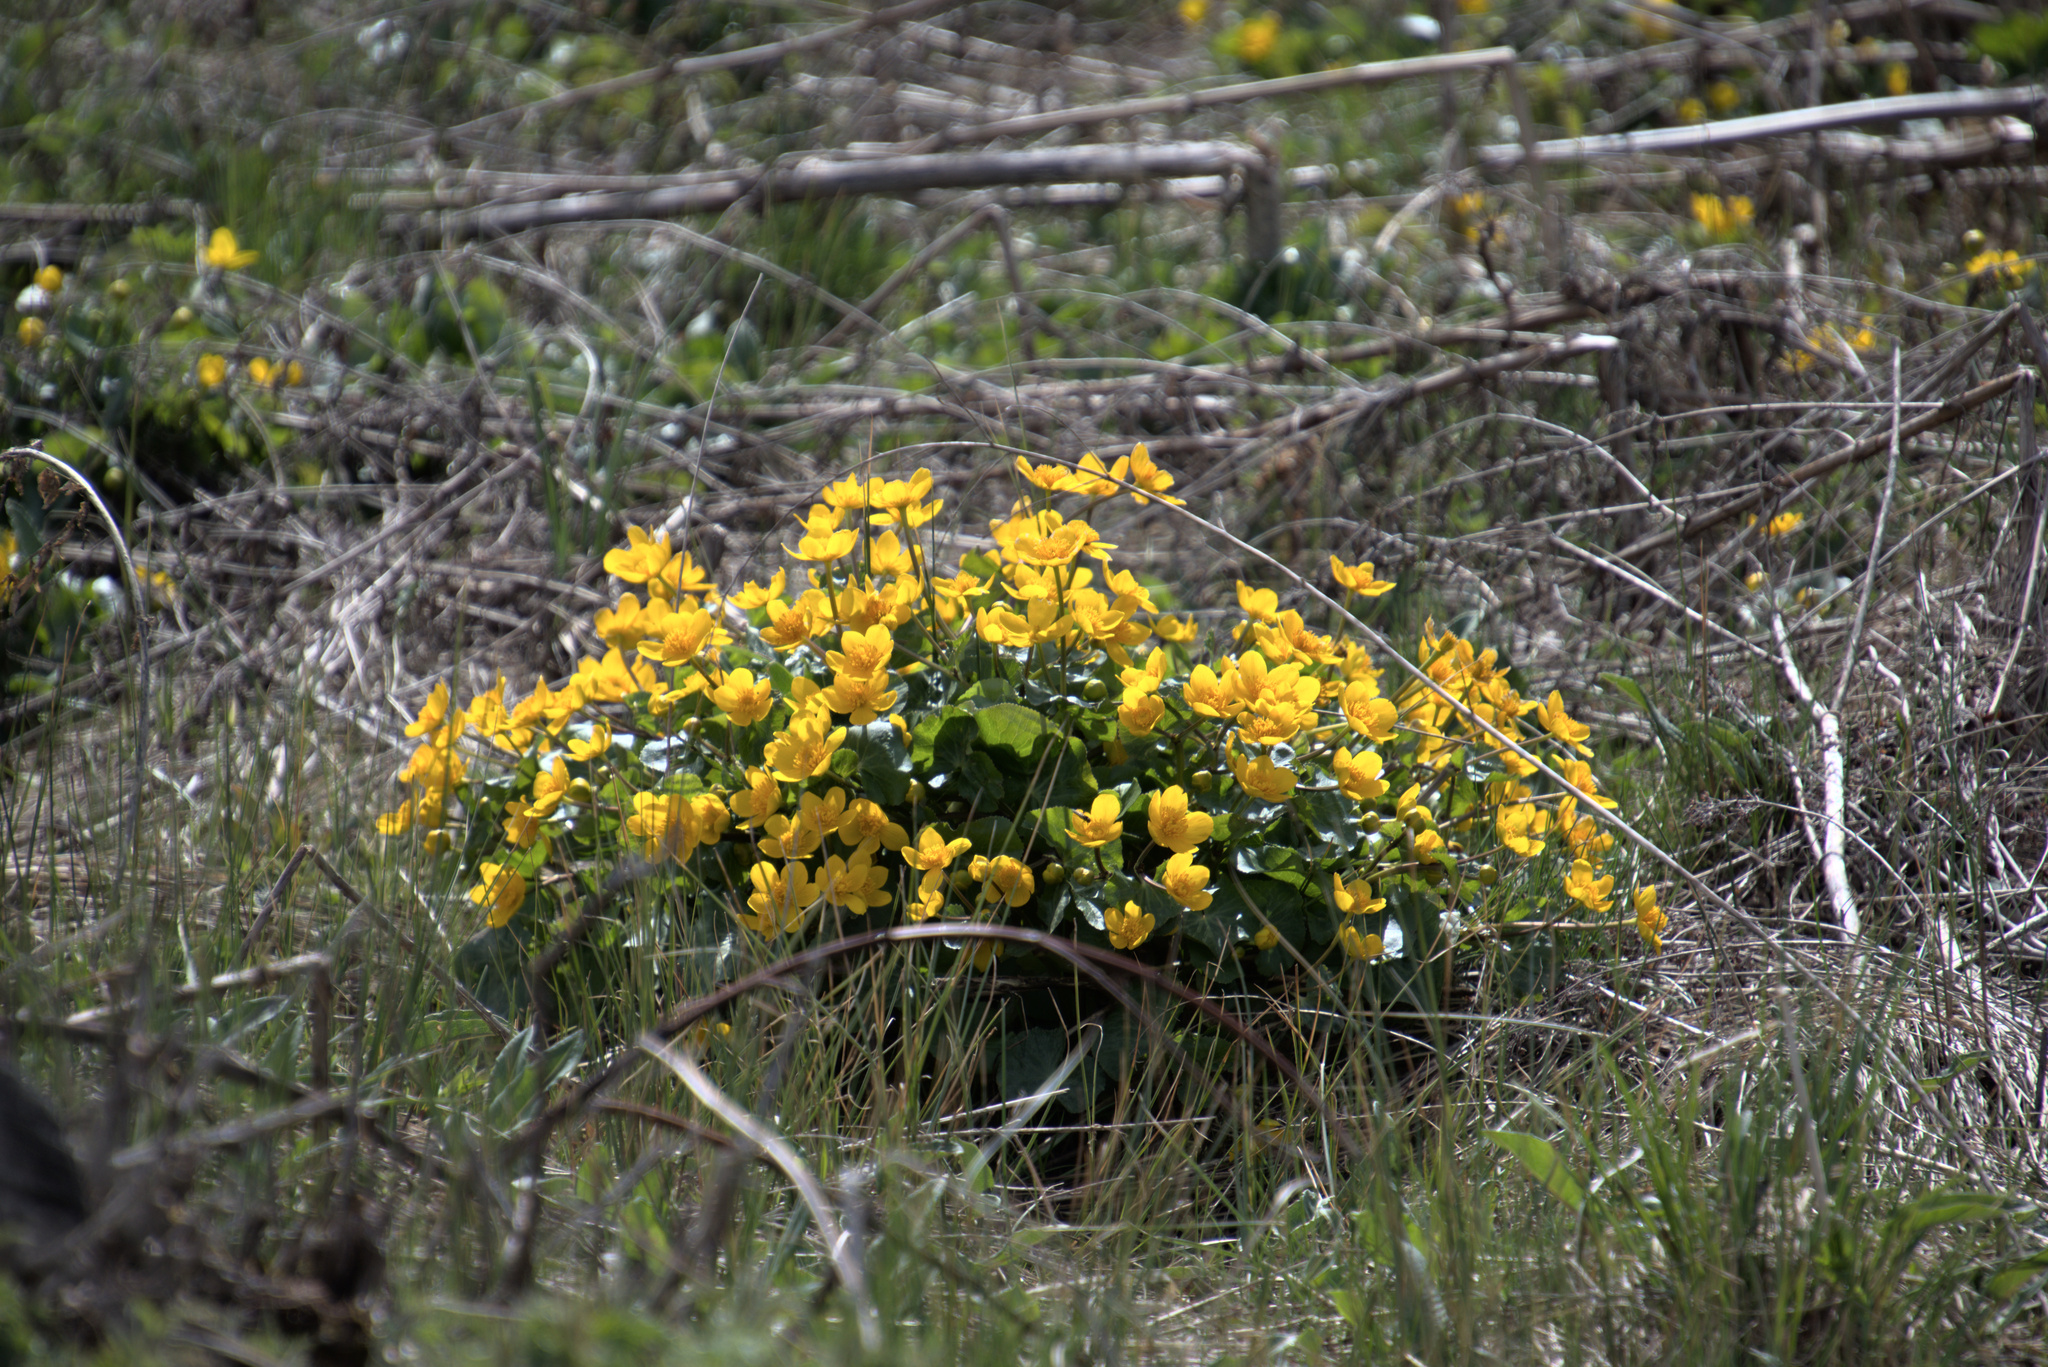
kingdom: Plantae
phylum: Tracheophyta
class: Magnoliopsida
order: Ranunculales
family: Ranunculaceae
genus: Caltha
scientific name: Caltha palustris
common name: Marsh marigold
